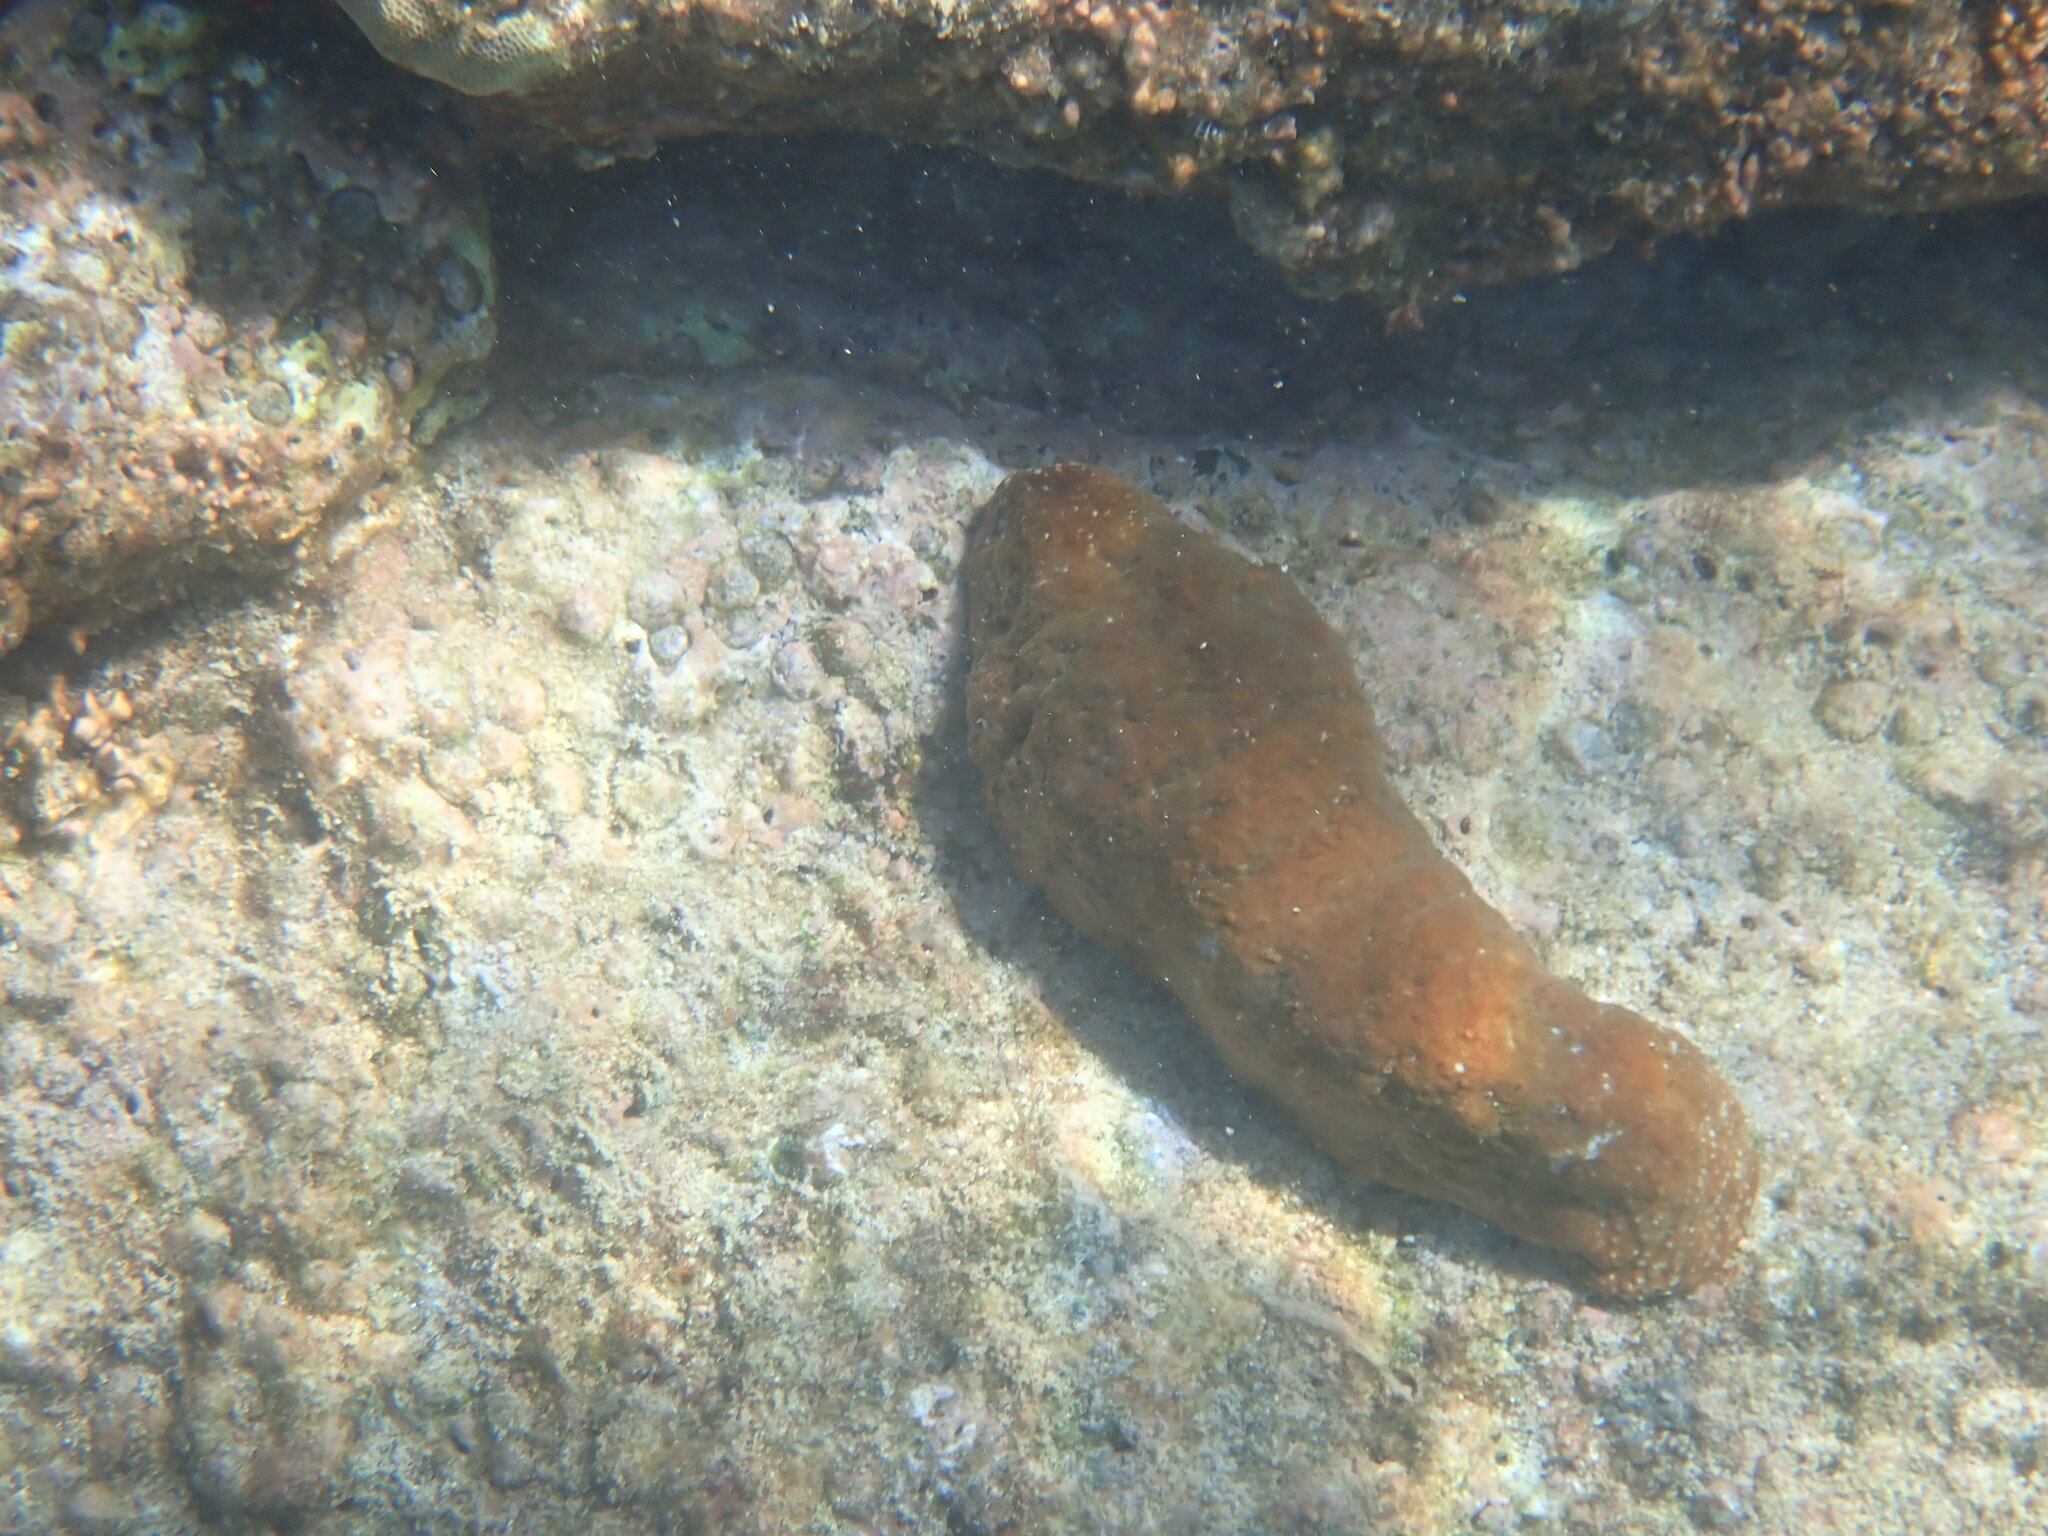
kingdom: Animalia
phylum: Echinodermata
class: Holothuroidea
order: Holothuriida
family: Holothuriidae
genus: Actinopyga
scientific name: Actinopyga varians
